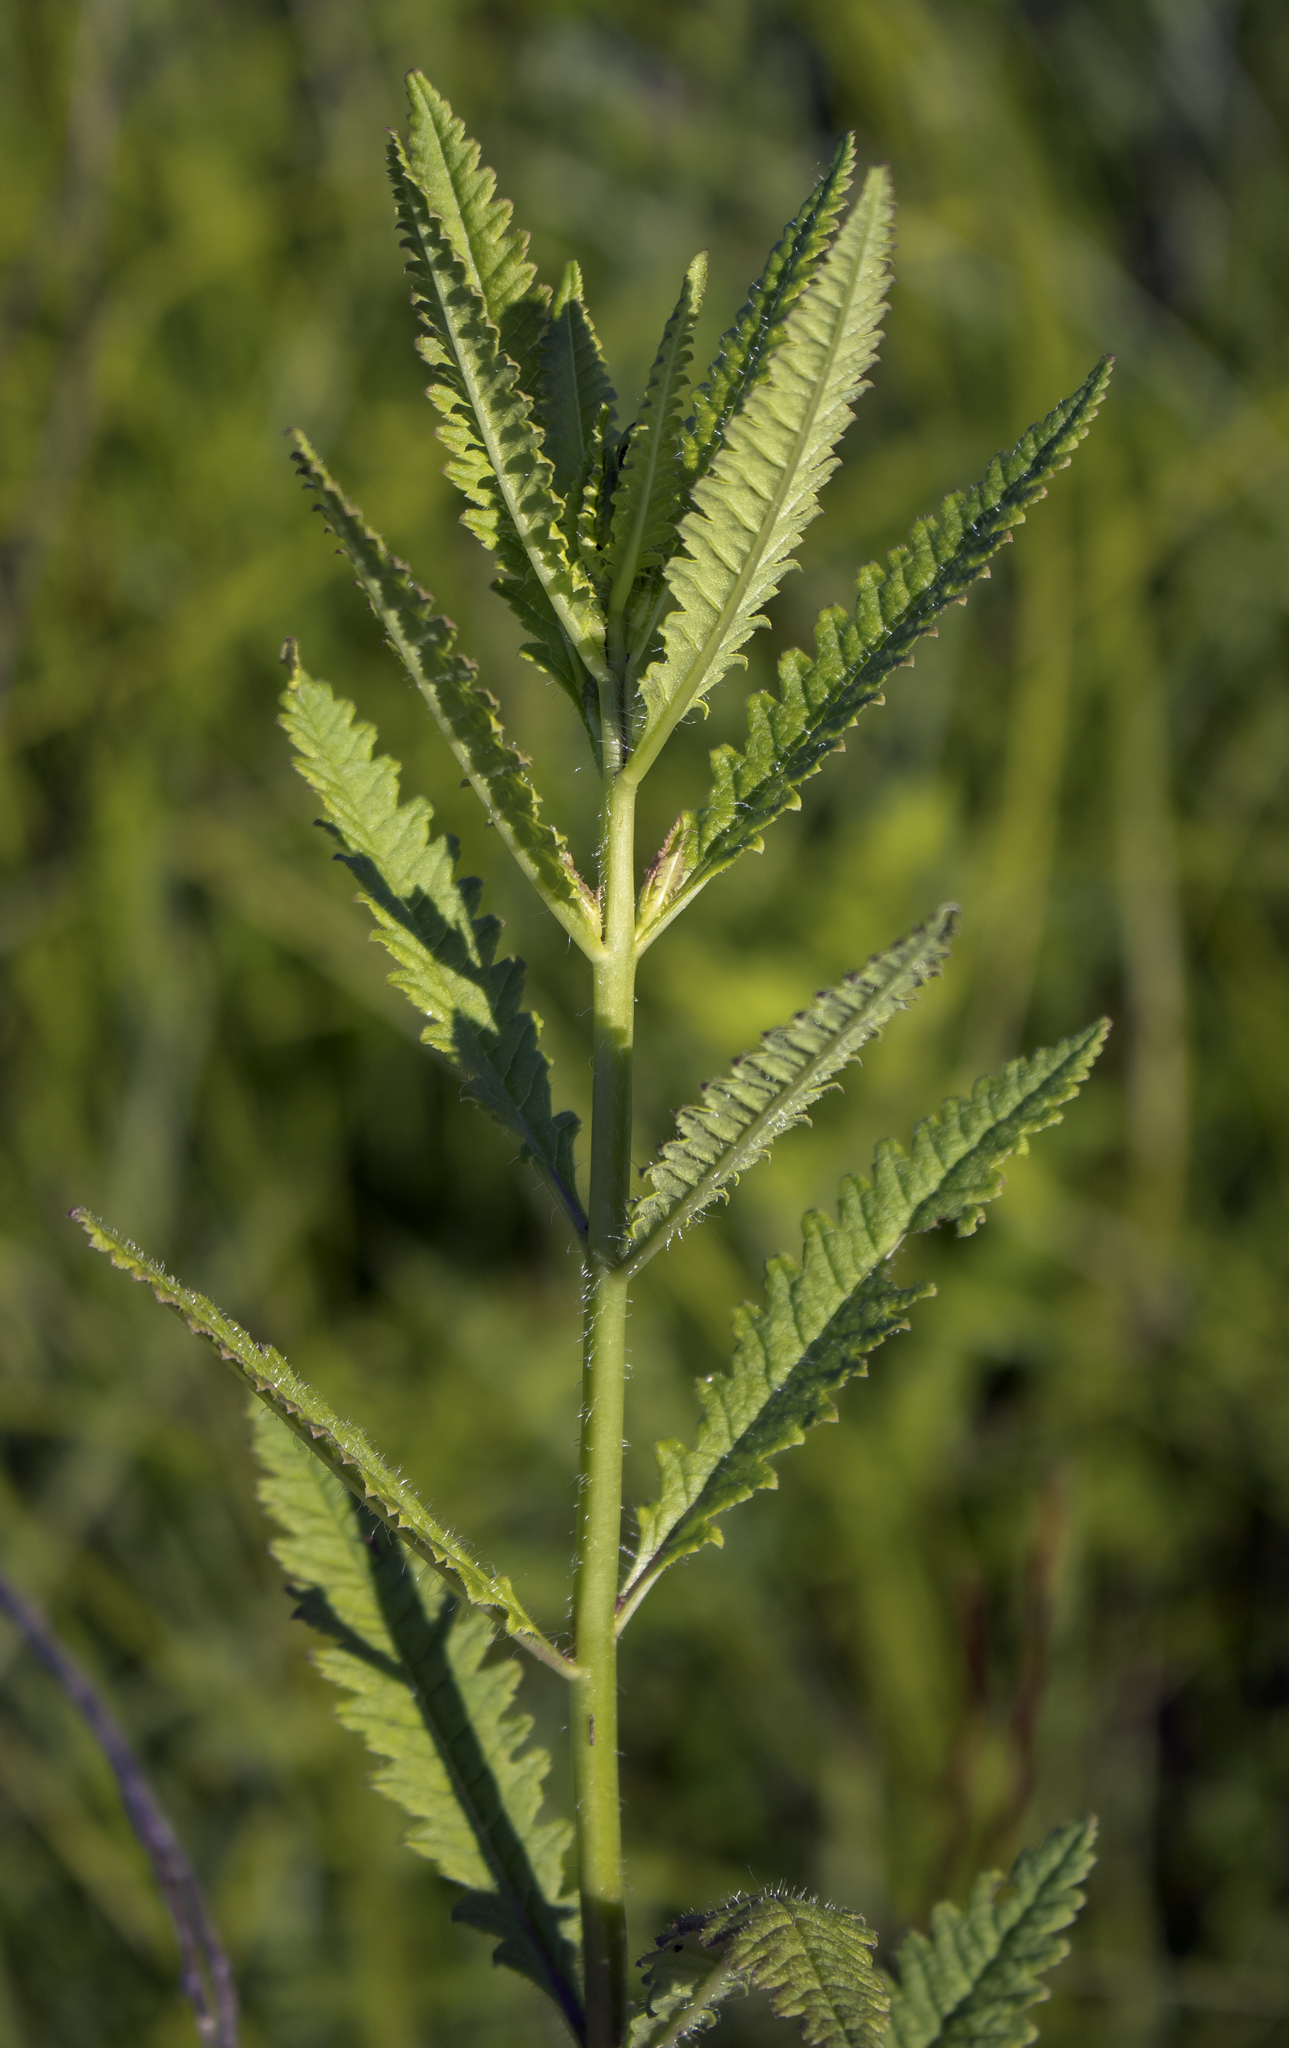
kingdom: Plantae
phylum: Tracheophyta
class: Magnoliopsida
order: Lamiales
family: Orobanchaceae
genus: Pedicularis
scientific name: Pedicularis lanceolata
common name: Swamp lousewort
